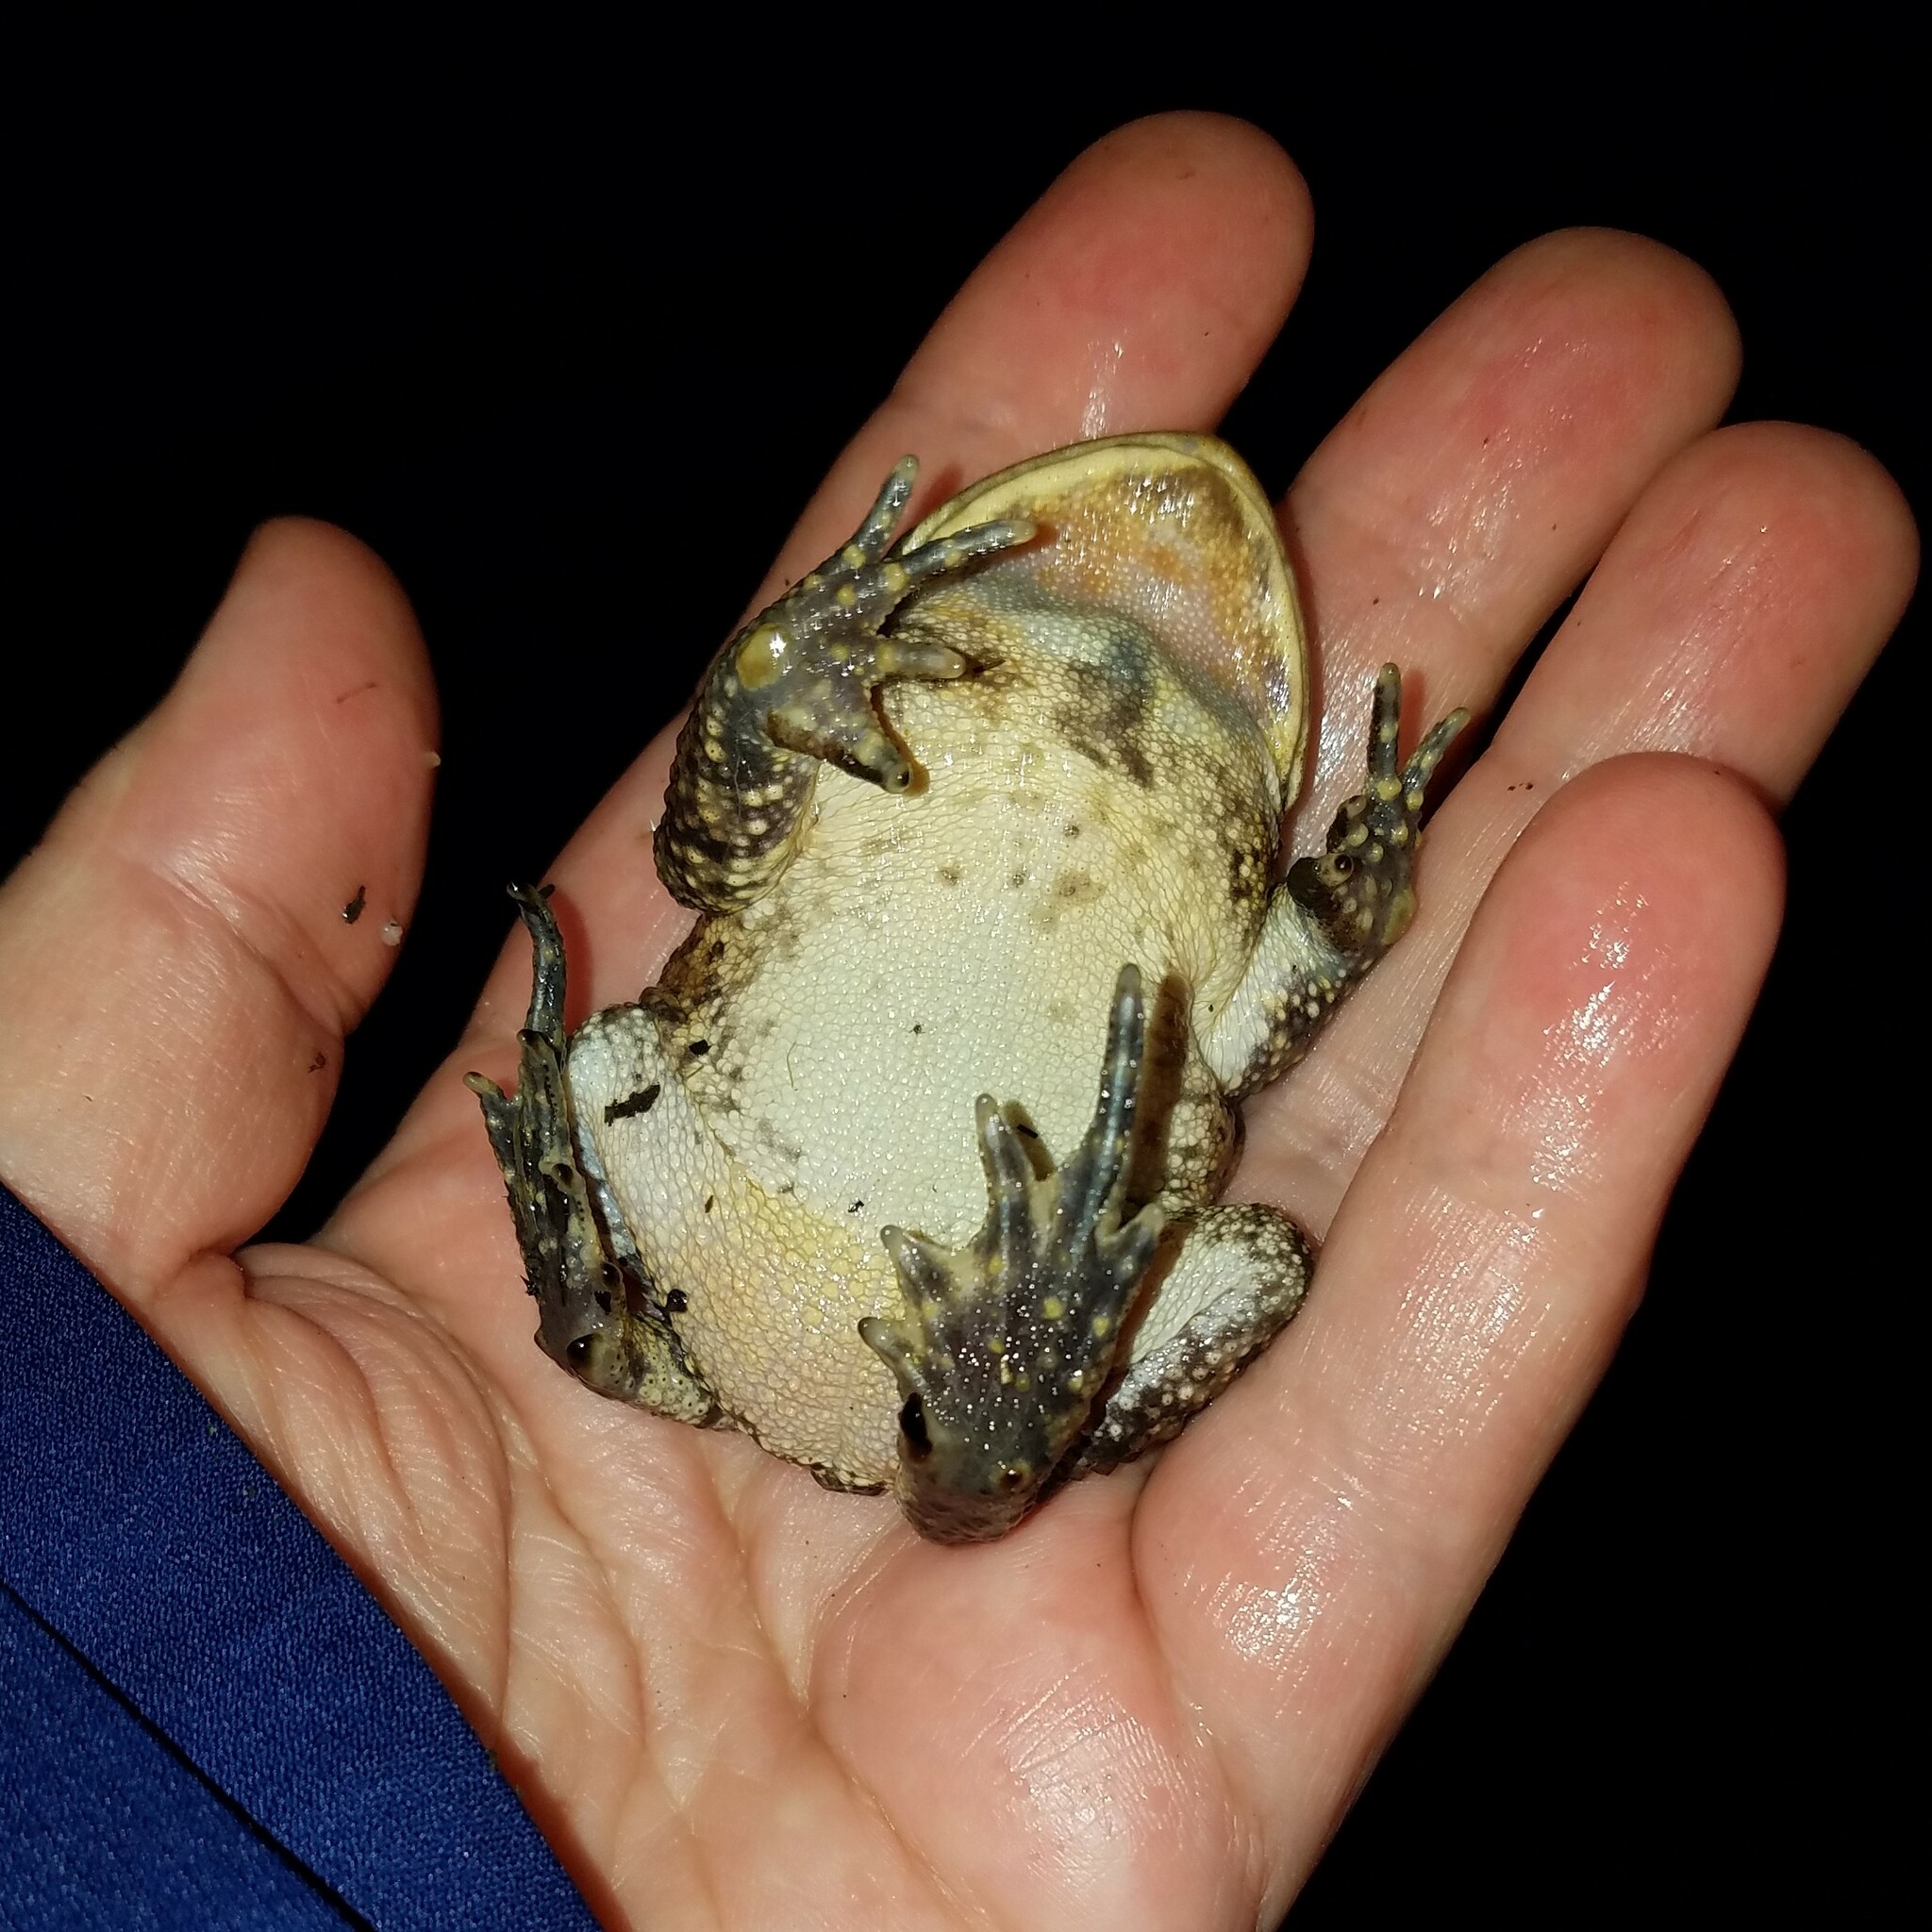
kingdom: Animalia
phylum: Chordata
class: Amphibia
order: Anura
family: Bufonidae
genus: Anaxyrus
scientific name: Anaxyrus americanus
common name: American toad
